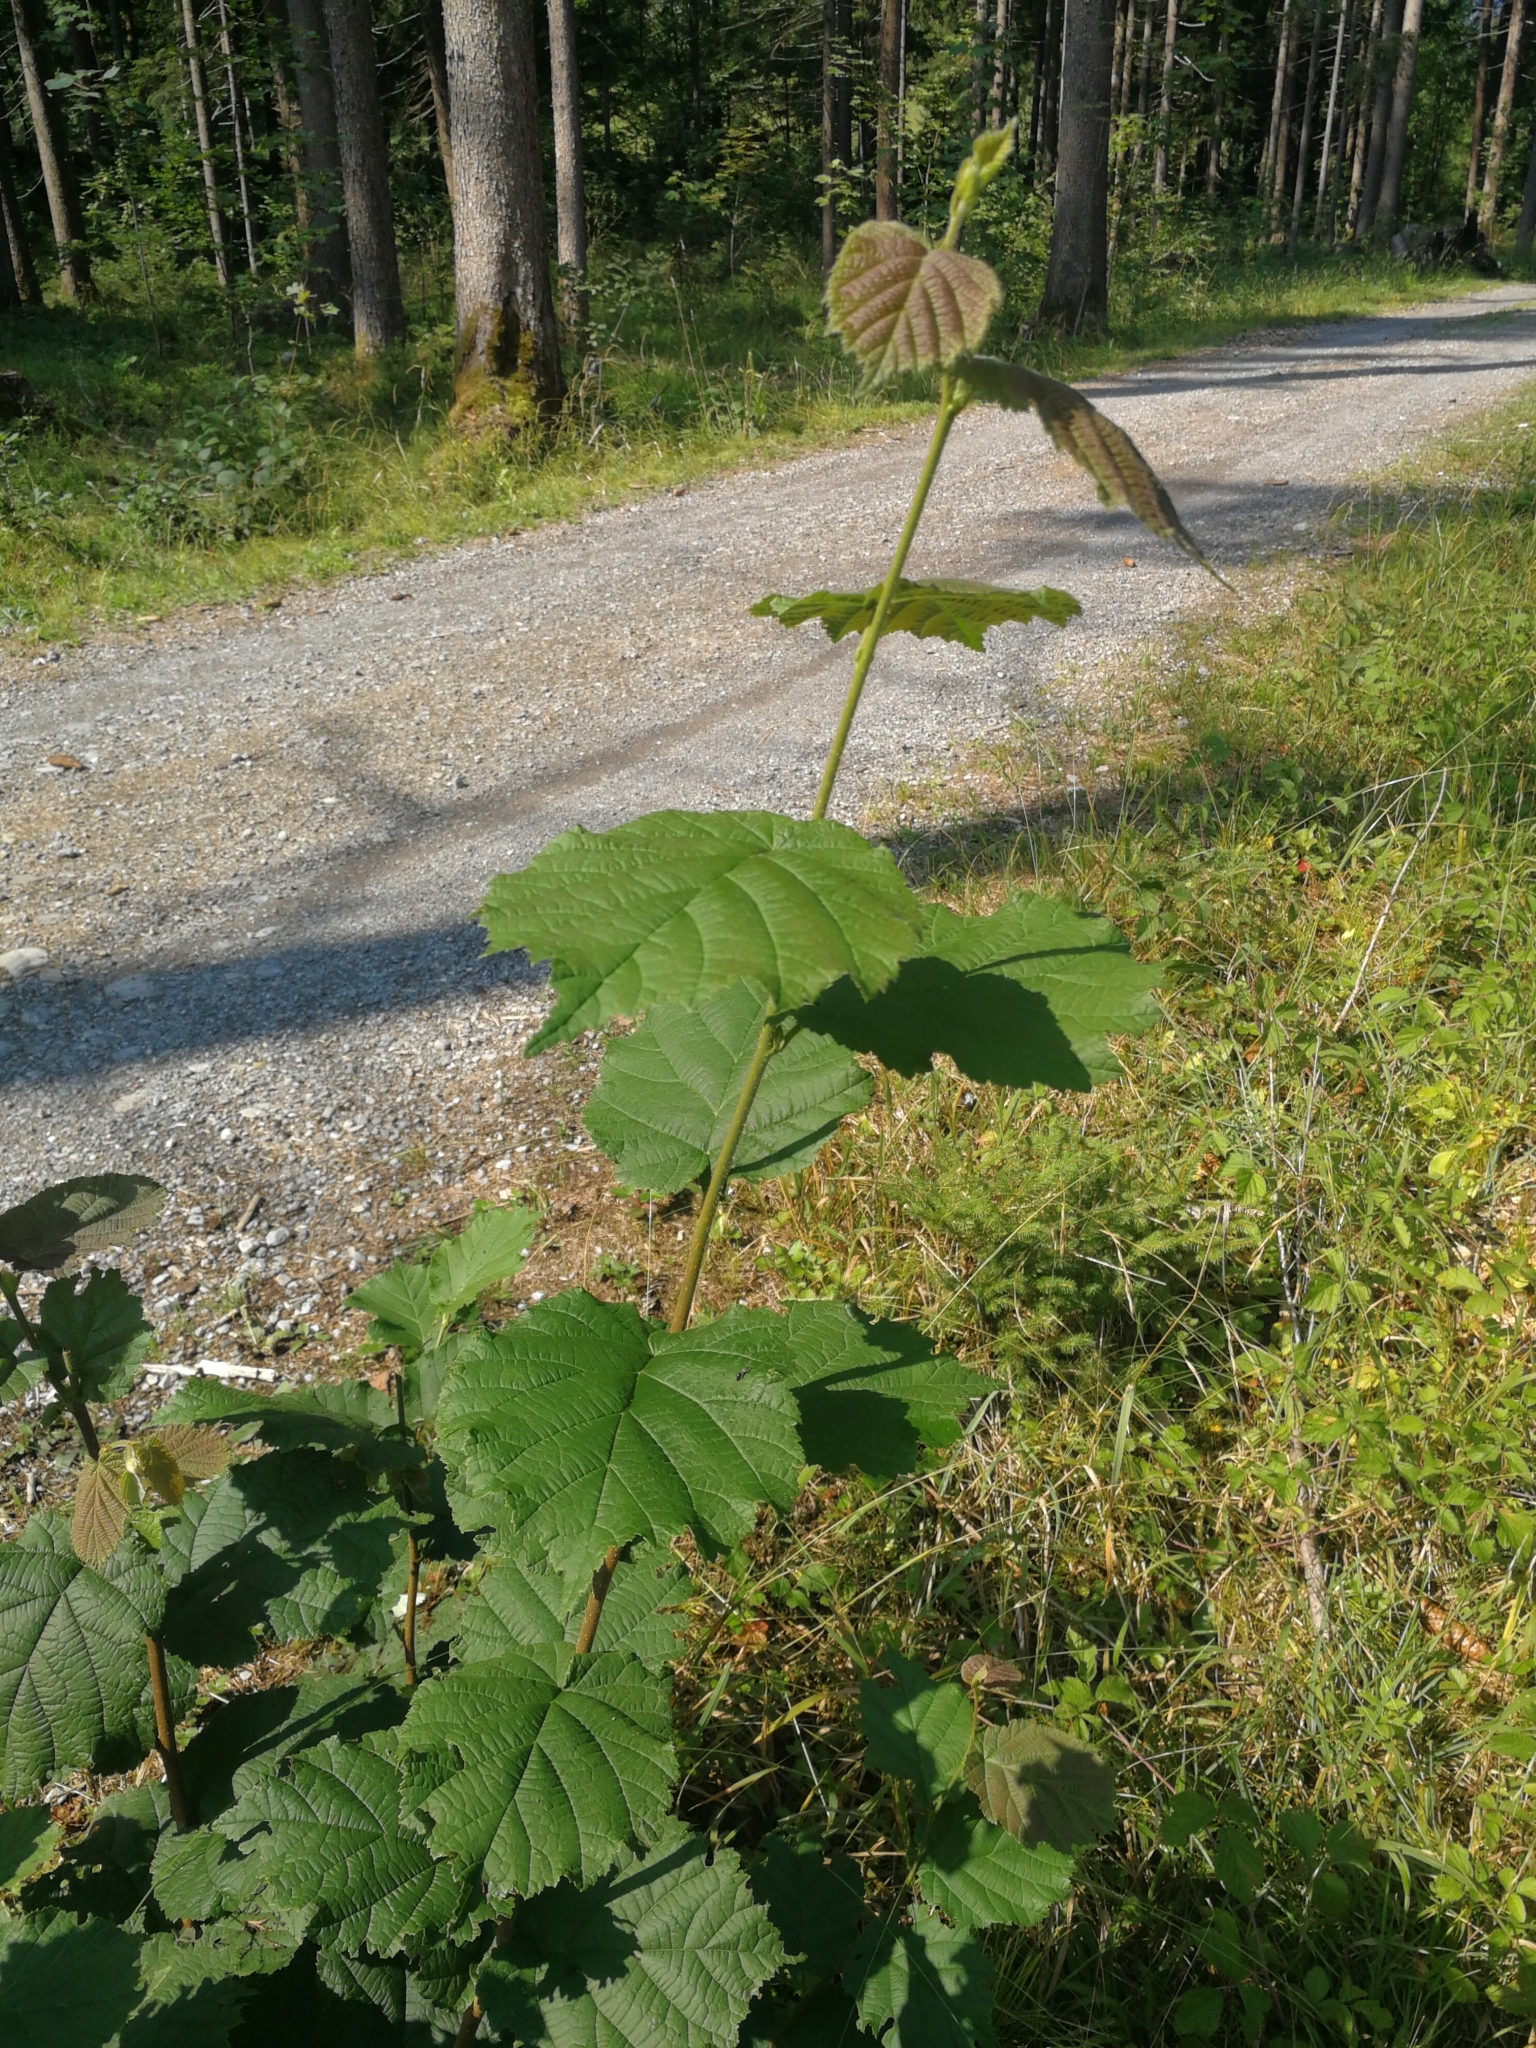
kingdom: Plantae
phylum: Tracheophyta
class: Magnoliopsida
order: Fagales
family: Betulaceae
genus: Corylus
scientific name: Corylus avellana
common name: European hazel
